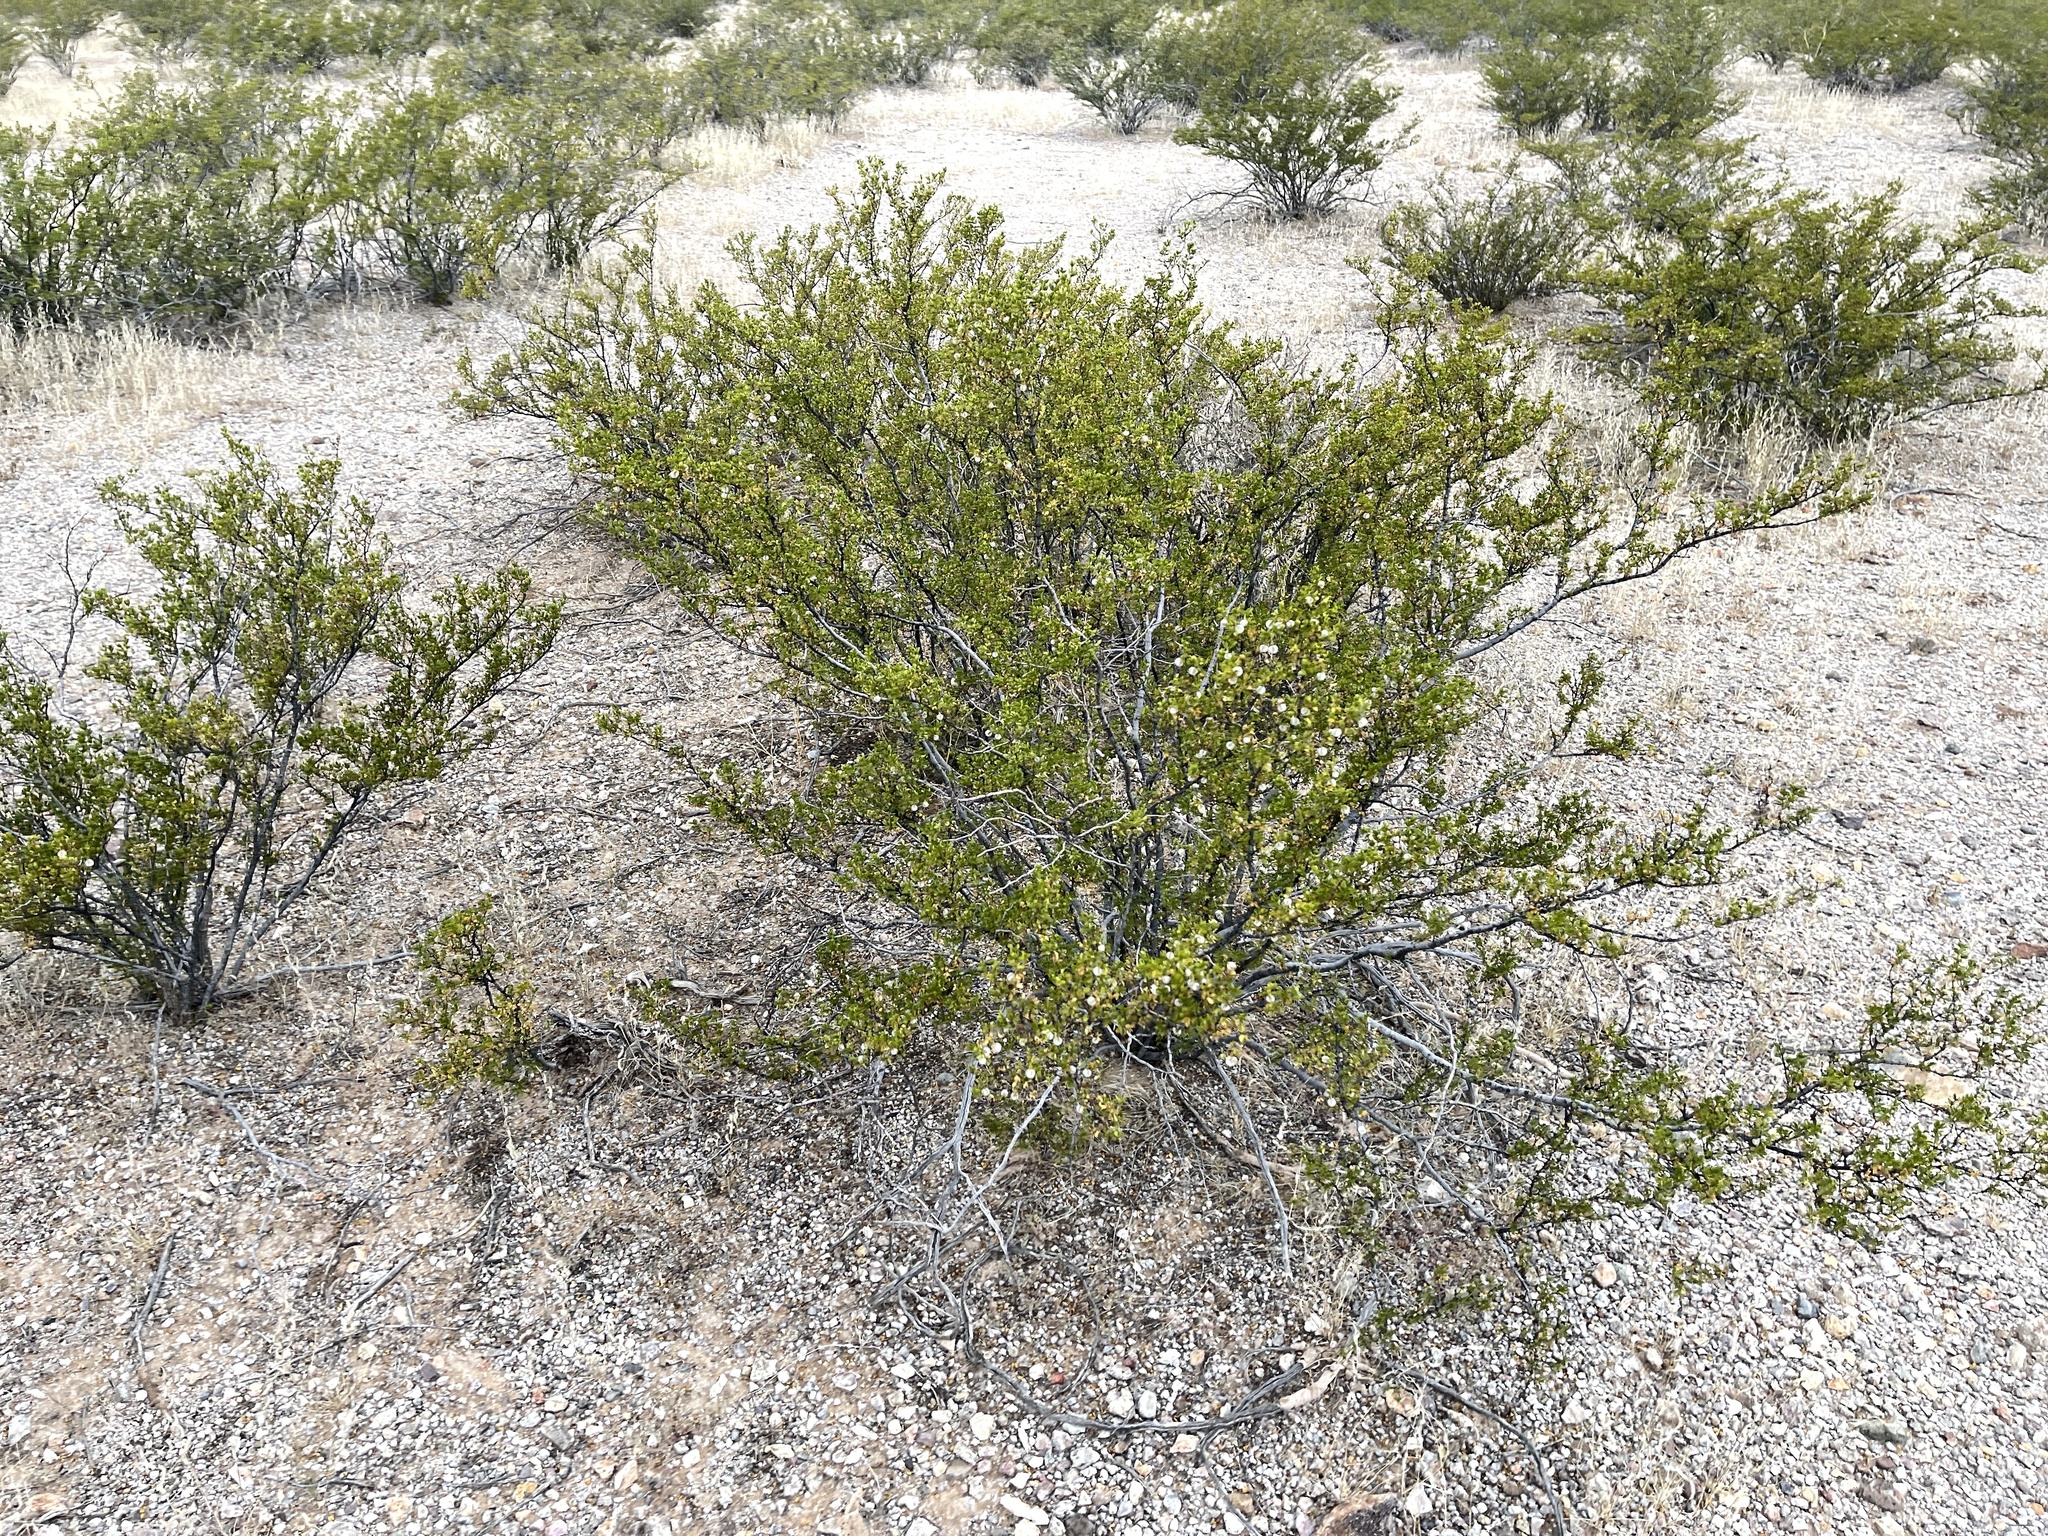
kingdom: Plantae
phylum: Tracheophyta
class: Magnoliopsida
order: Zygophyllales
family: Zygophyllaceae
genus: Larrea
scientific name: Larrea tridentata
